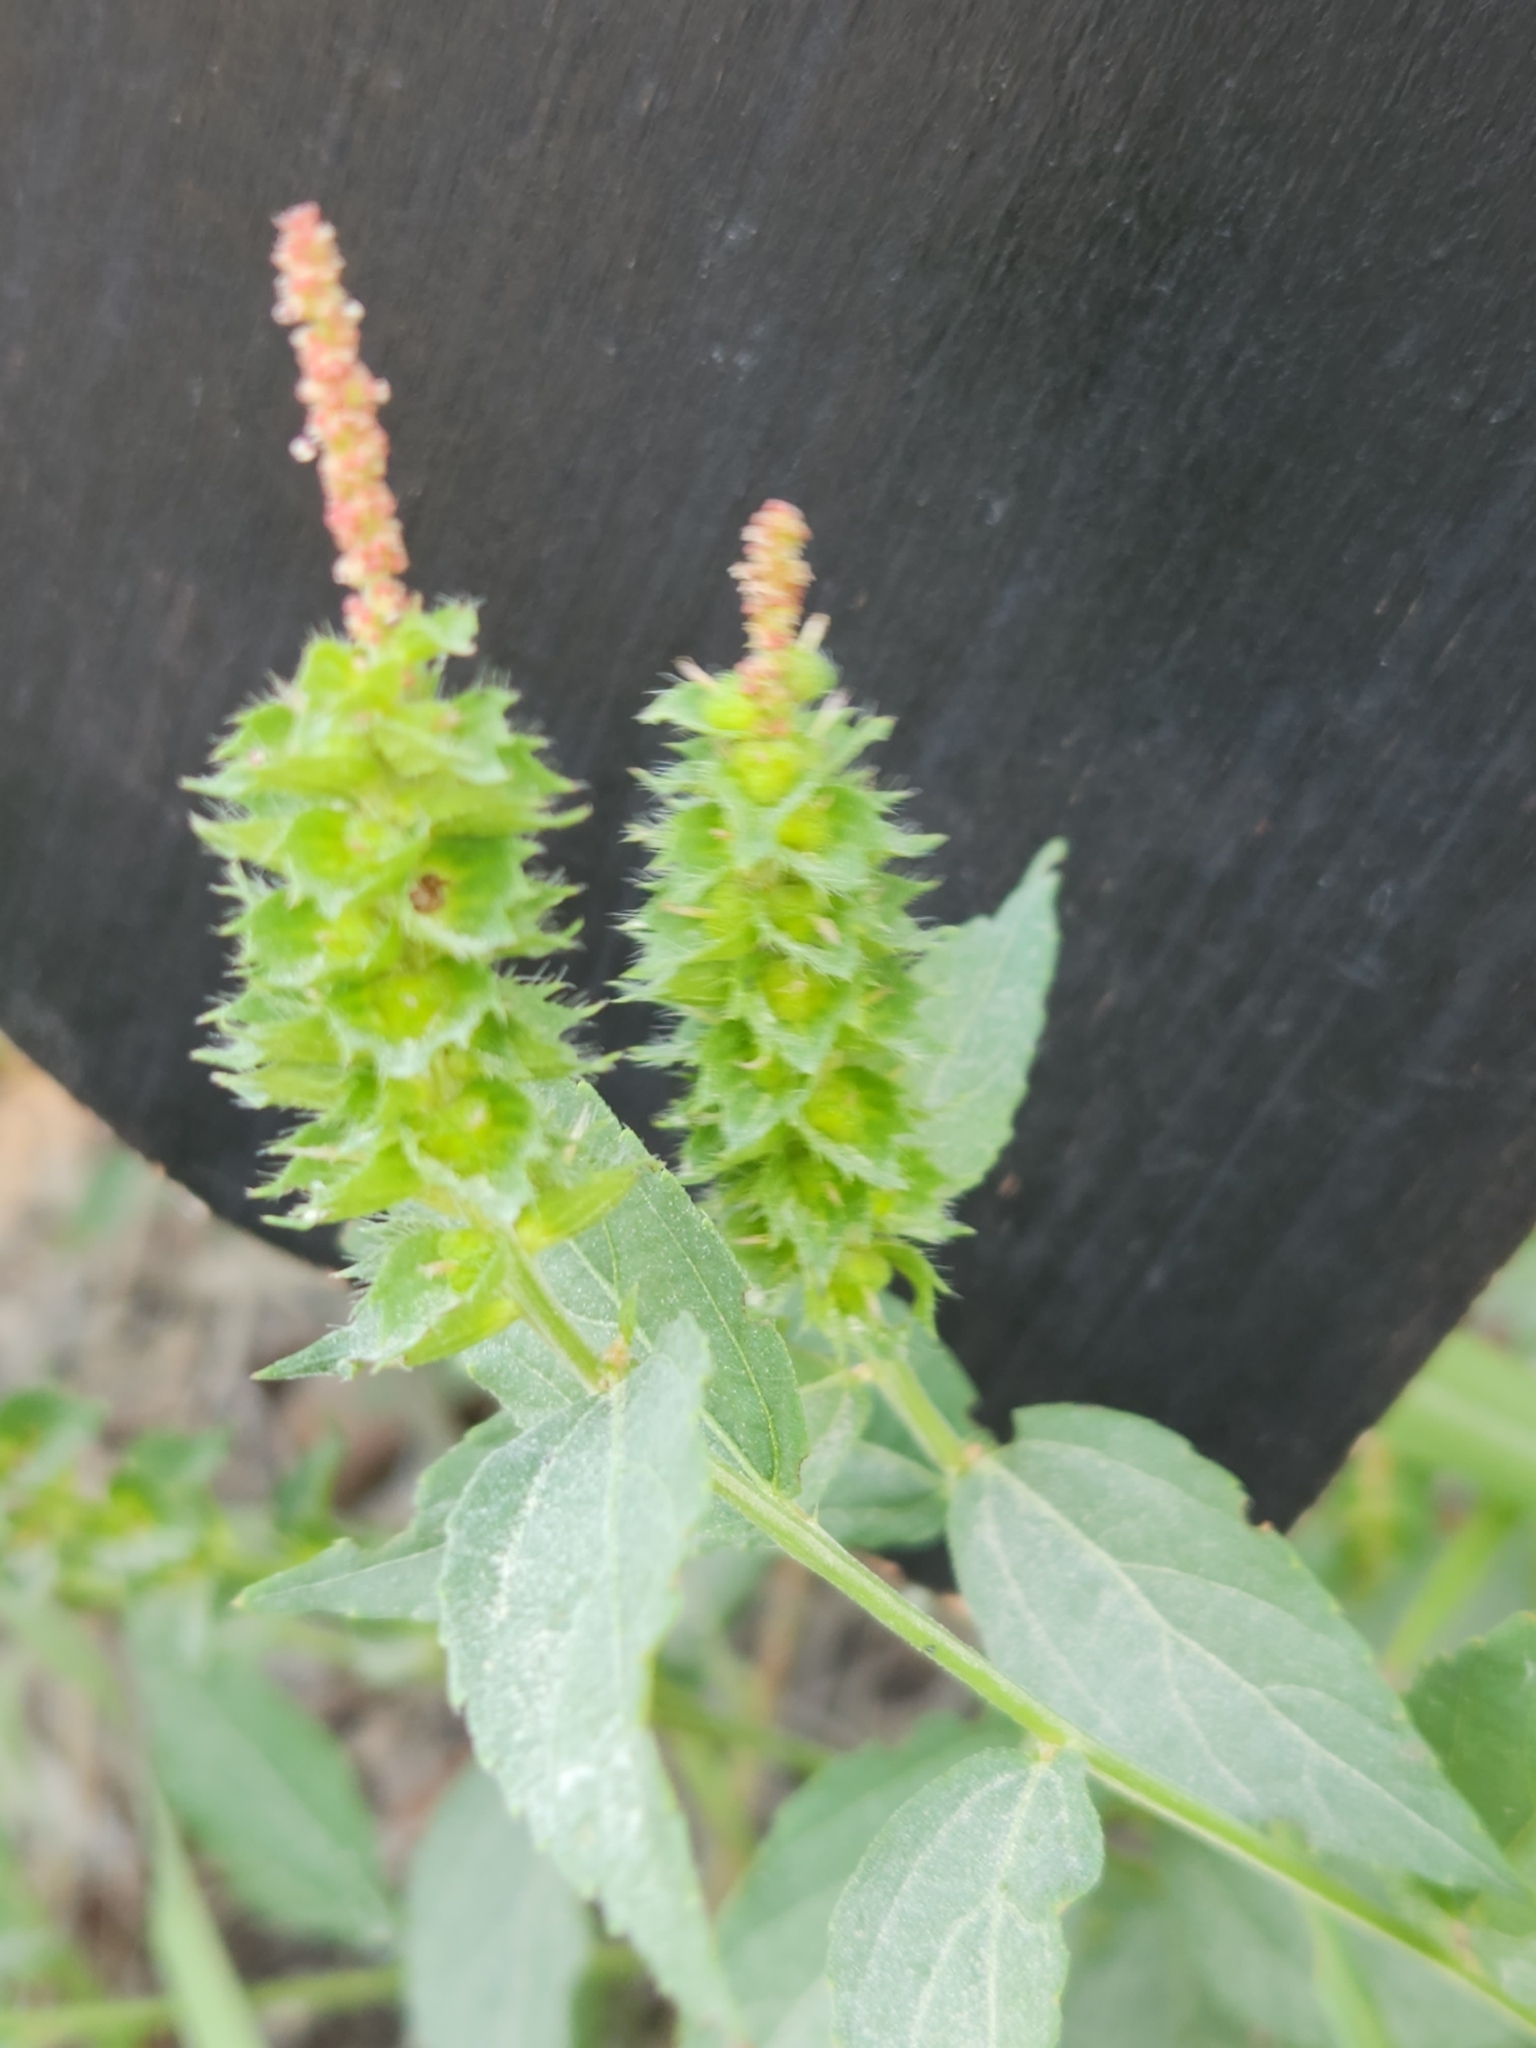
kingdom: Plantae
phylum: Tracheophyta
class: Magnoliopsida
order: Malpighiales
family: Euphorbiaceae
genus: Acalypha
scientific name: Acalypha phleoides
